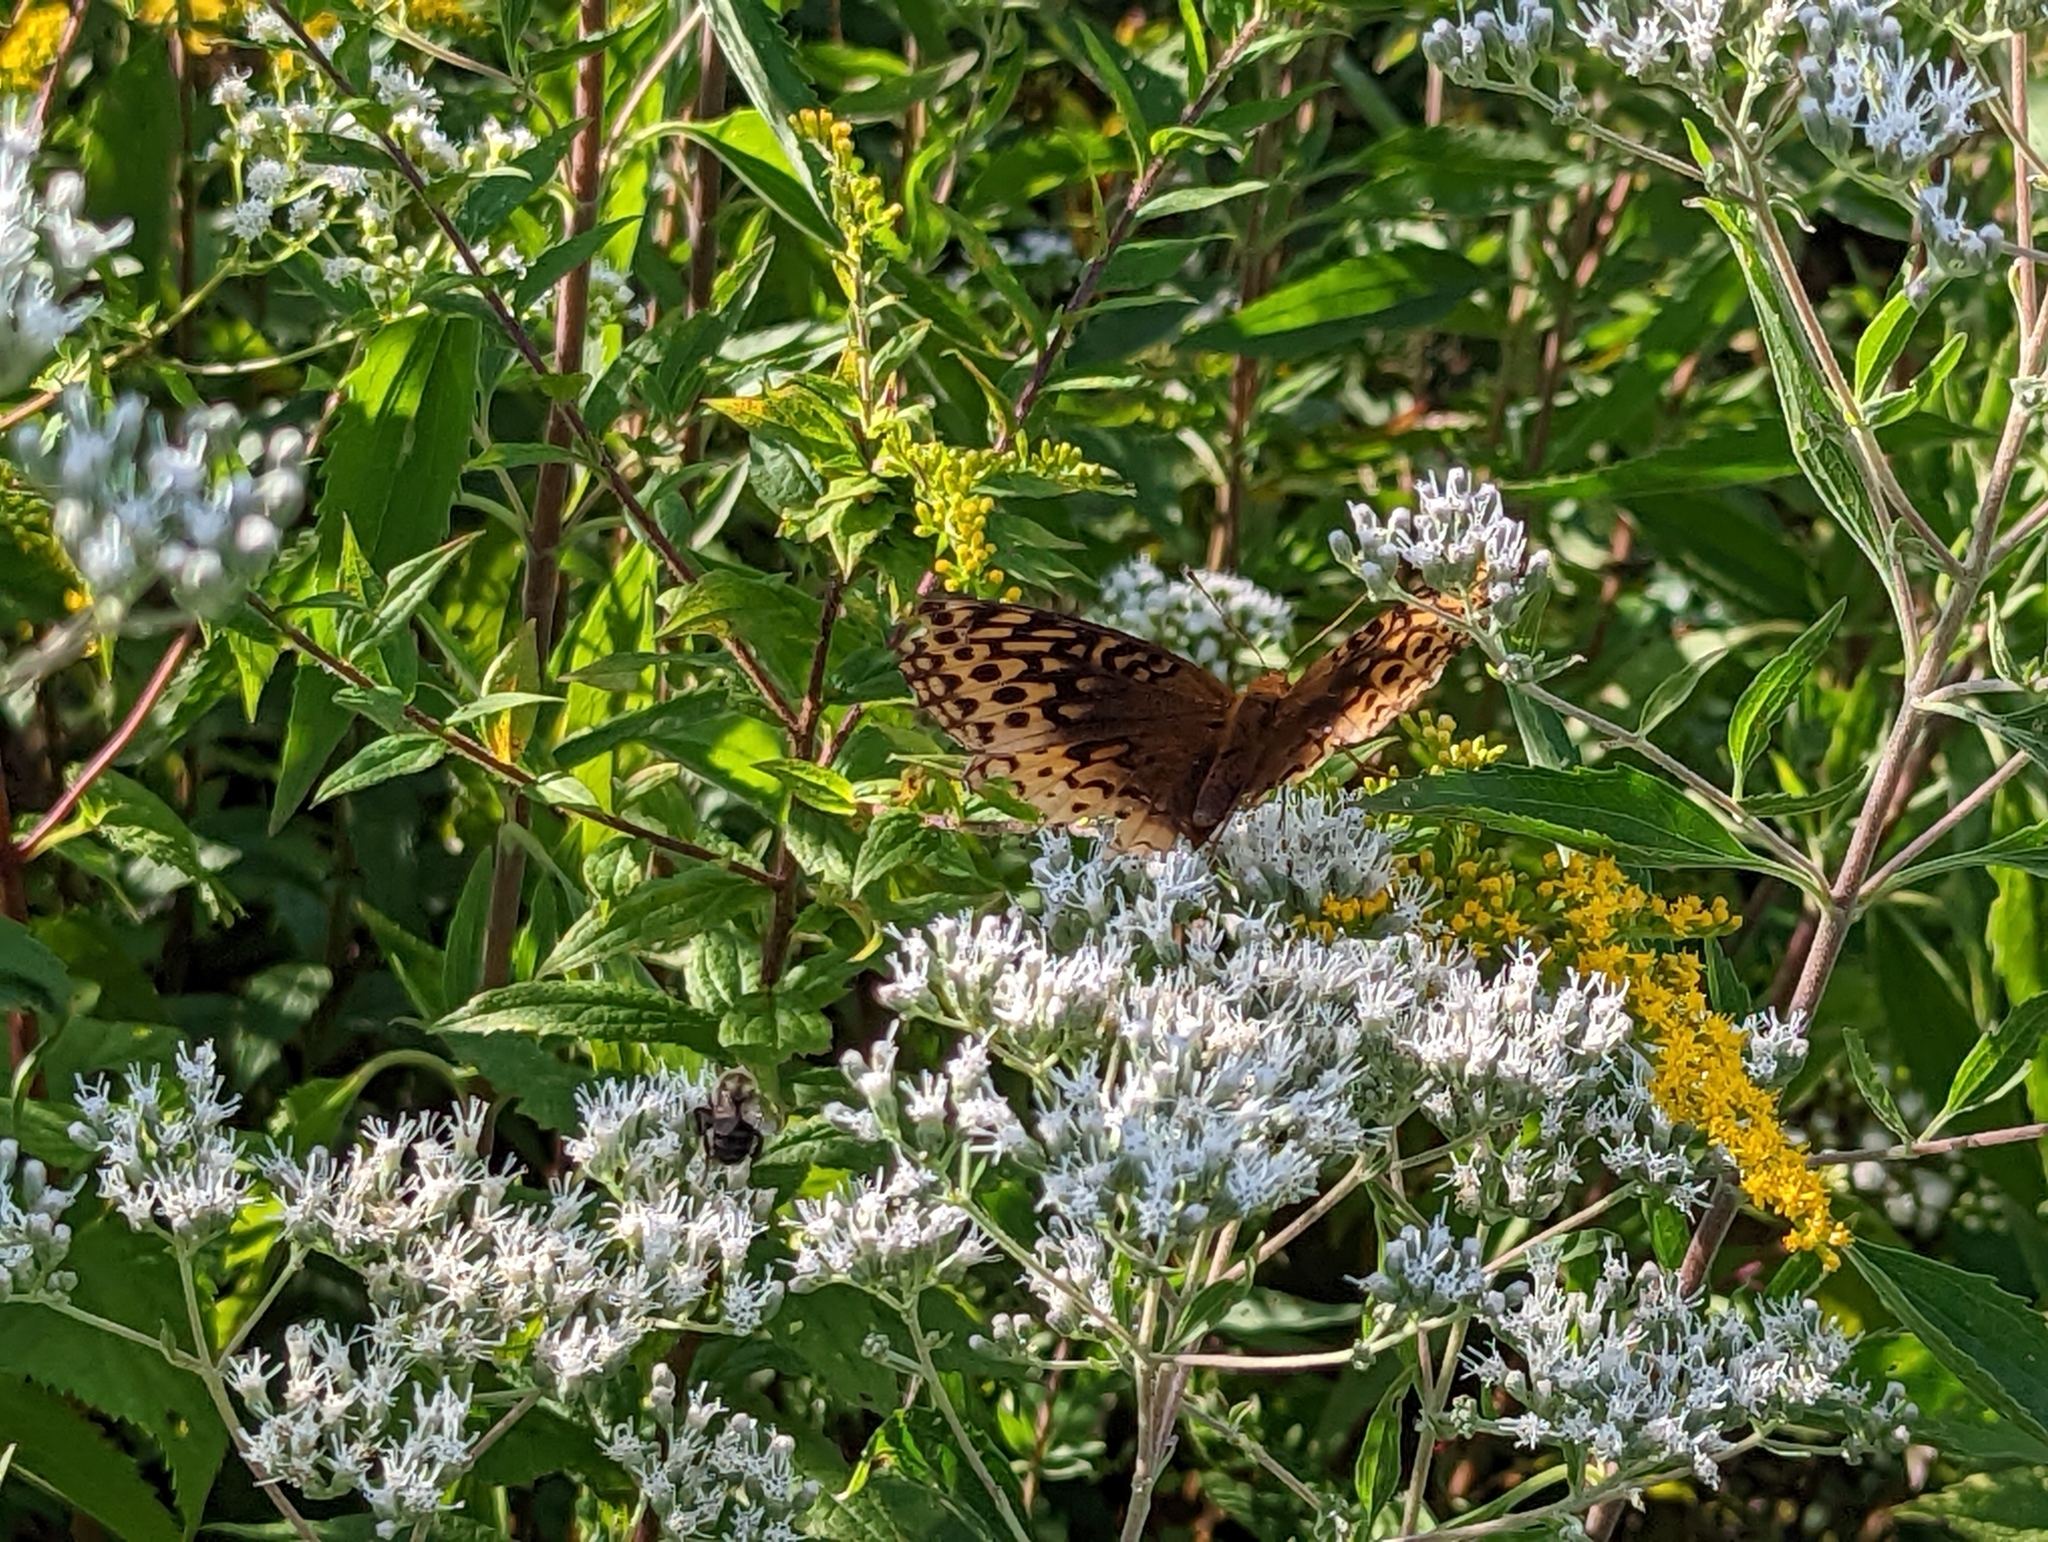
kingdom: Animalia
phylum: Arthropoda
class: Insecta
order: Lepidoptera
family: Nymphalidae
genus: Speyeria
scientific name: Speyeria cybele
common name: Great spangled fritillary
